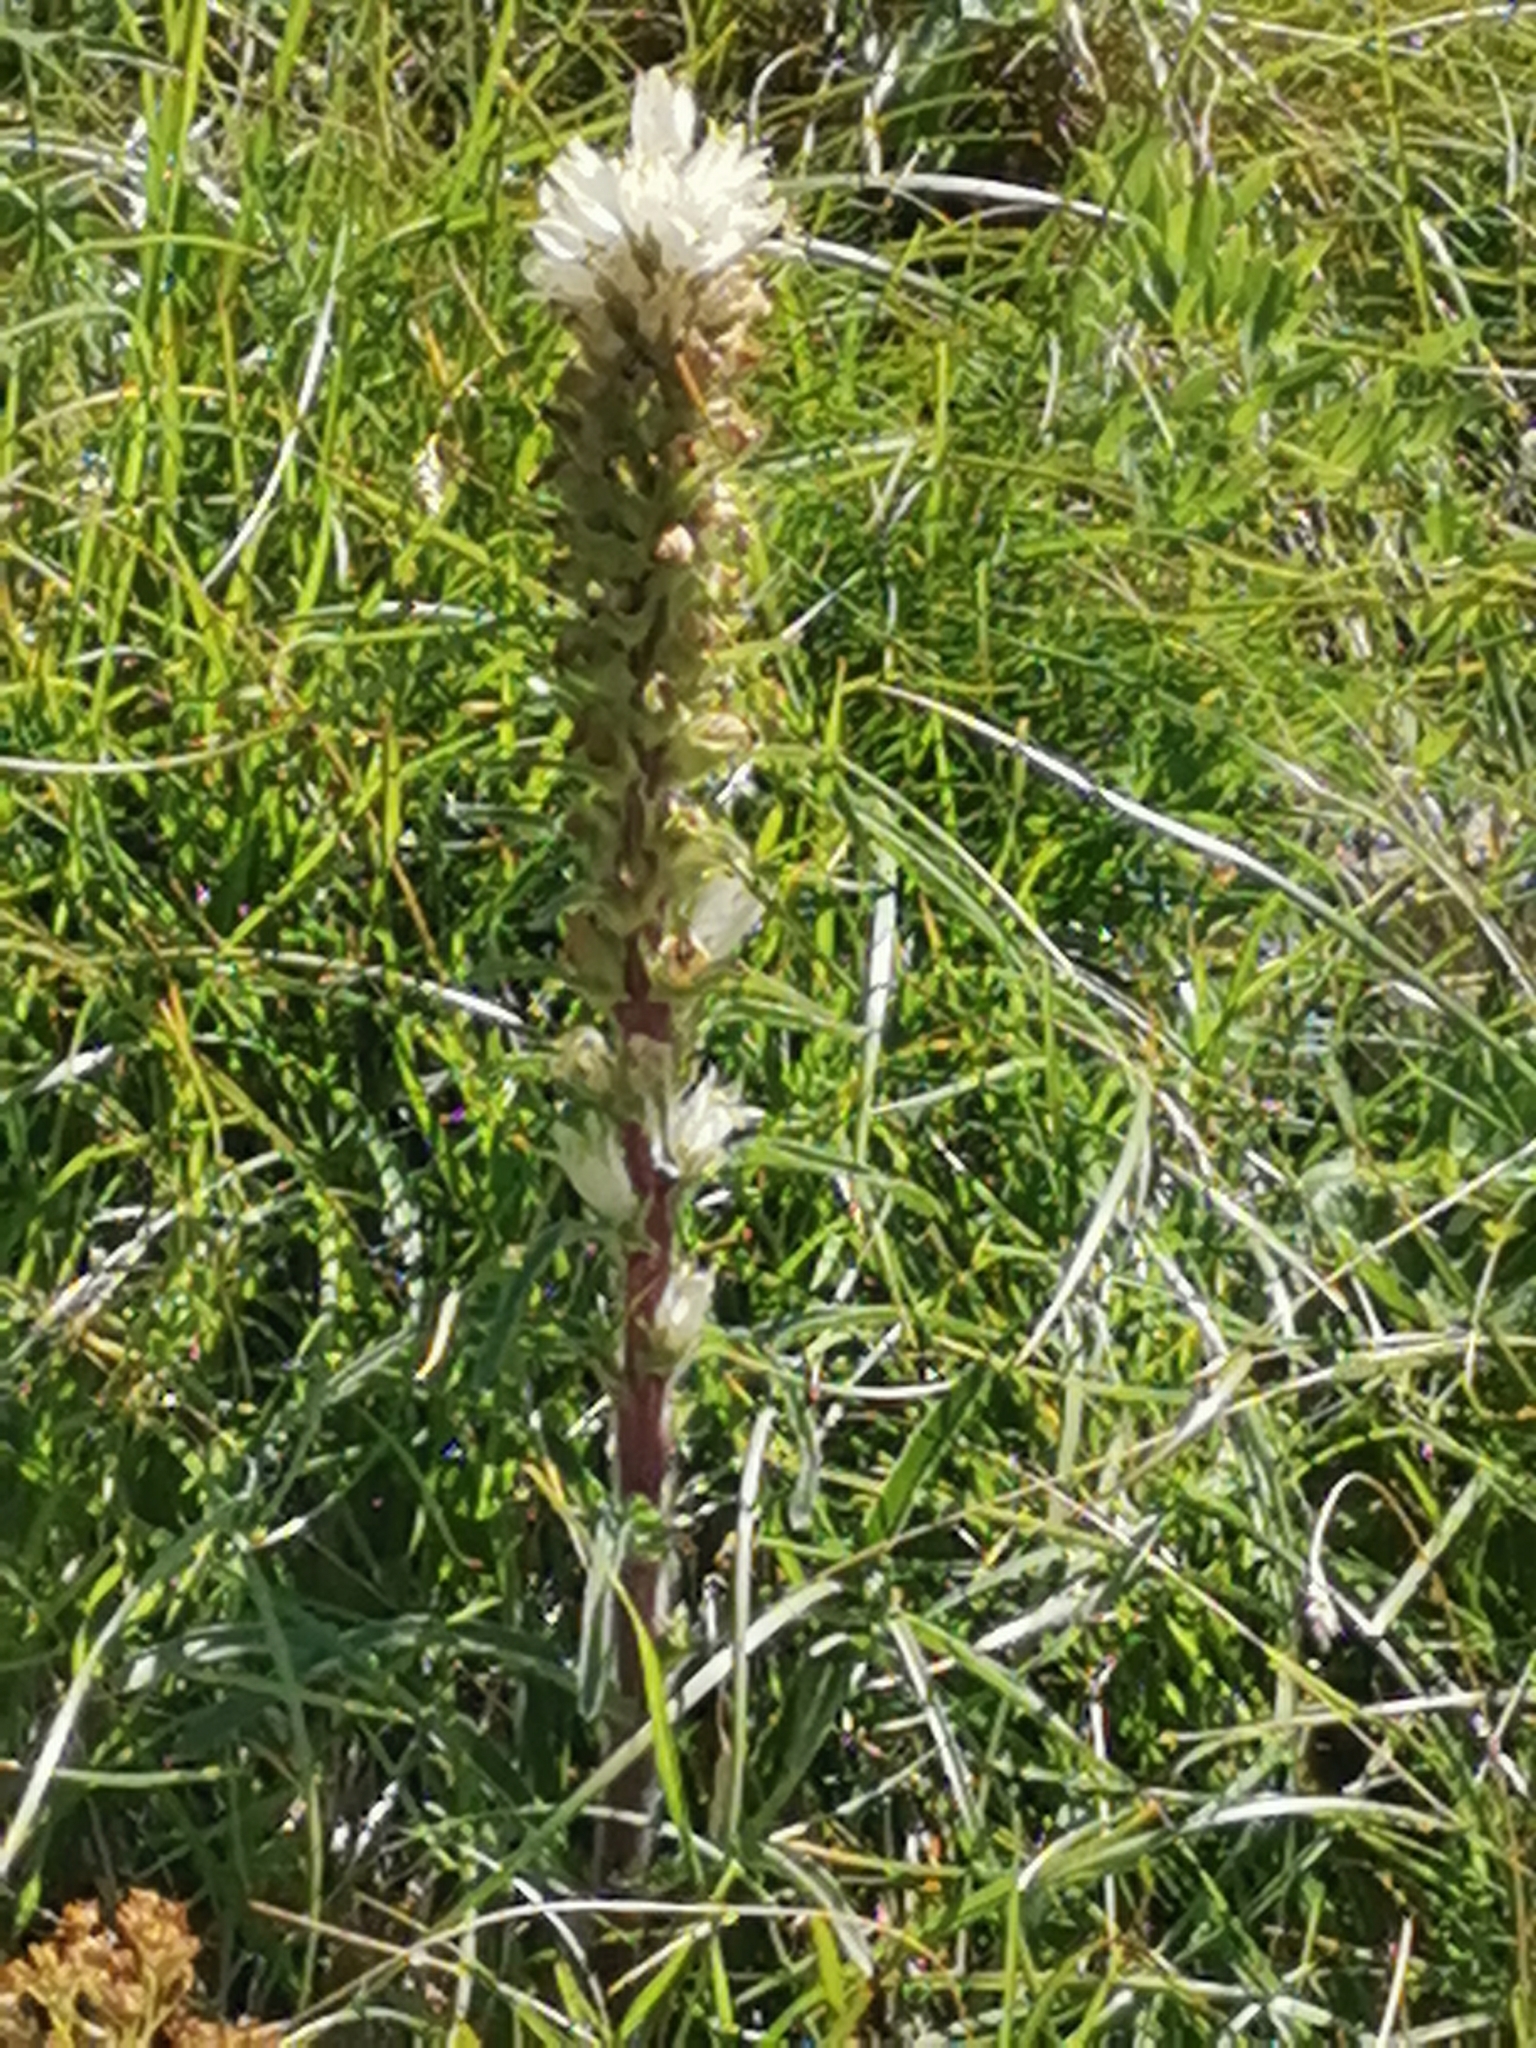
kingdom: Plantae
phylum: Tracheophyta
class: Magnoliopsida
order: Asterales
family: Campanulaceae
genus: Campanula
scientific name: Campanula thyrsoides
